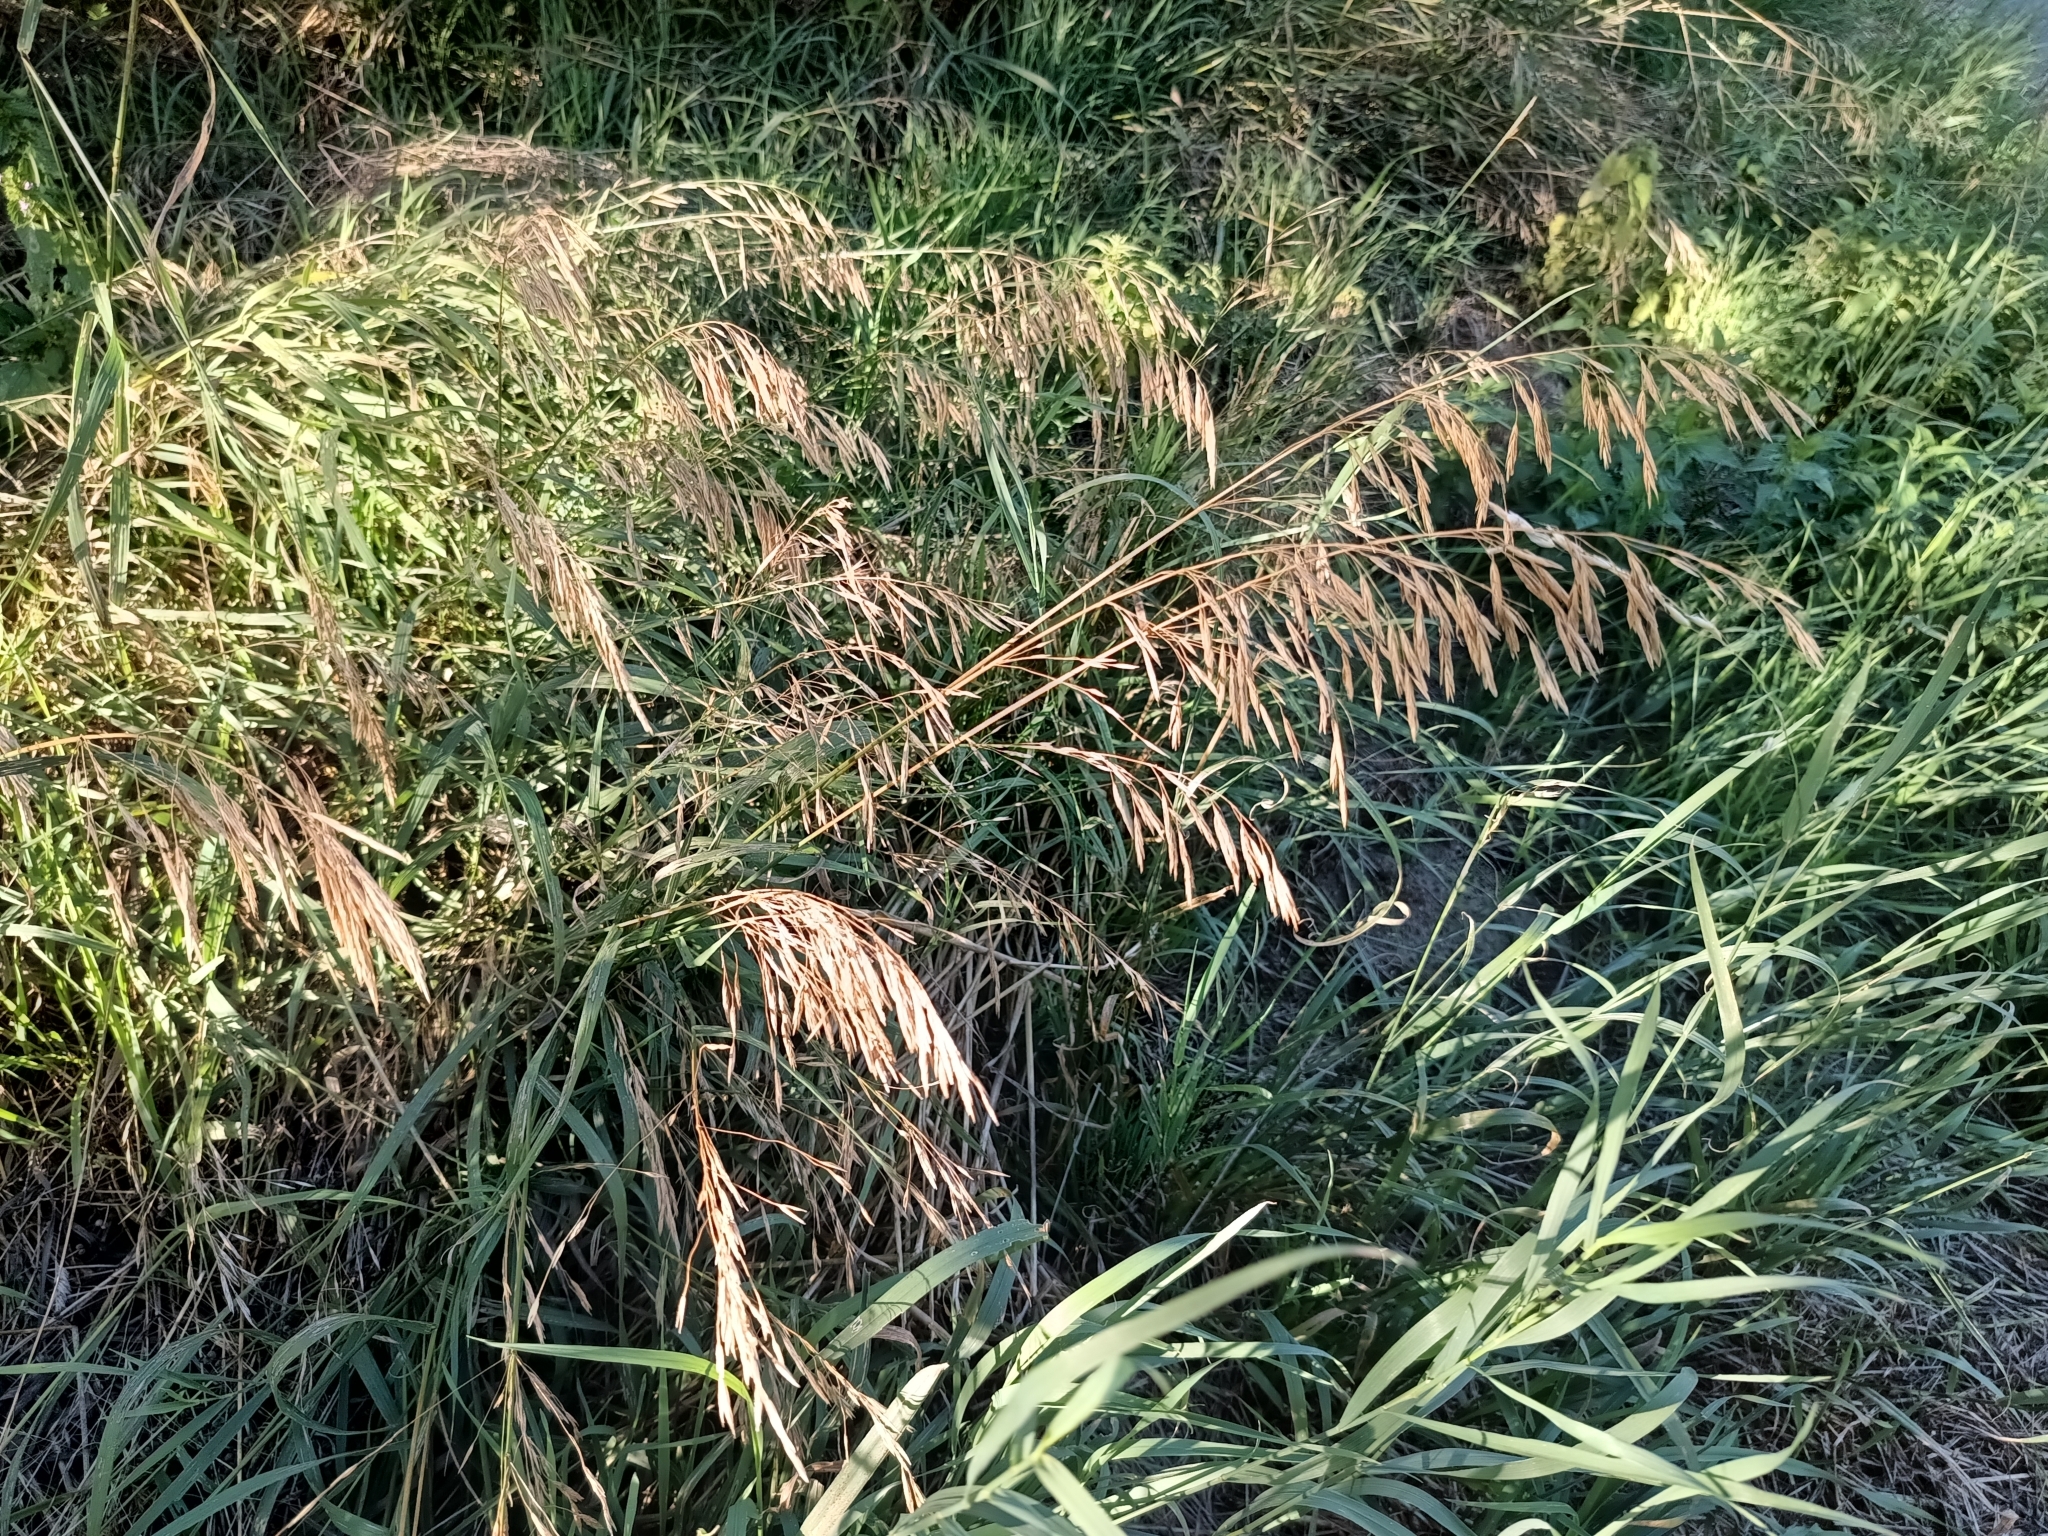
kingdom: Plantae
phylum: Tracheophyta
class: Liliopsida
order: Poales
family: Poaceae
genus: Bromus
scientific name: Bromus inermis
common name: Smooth brome
